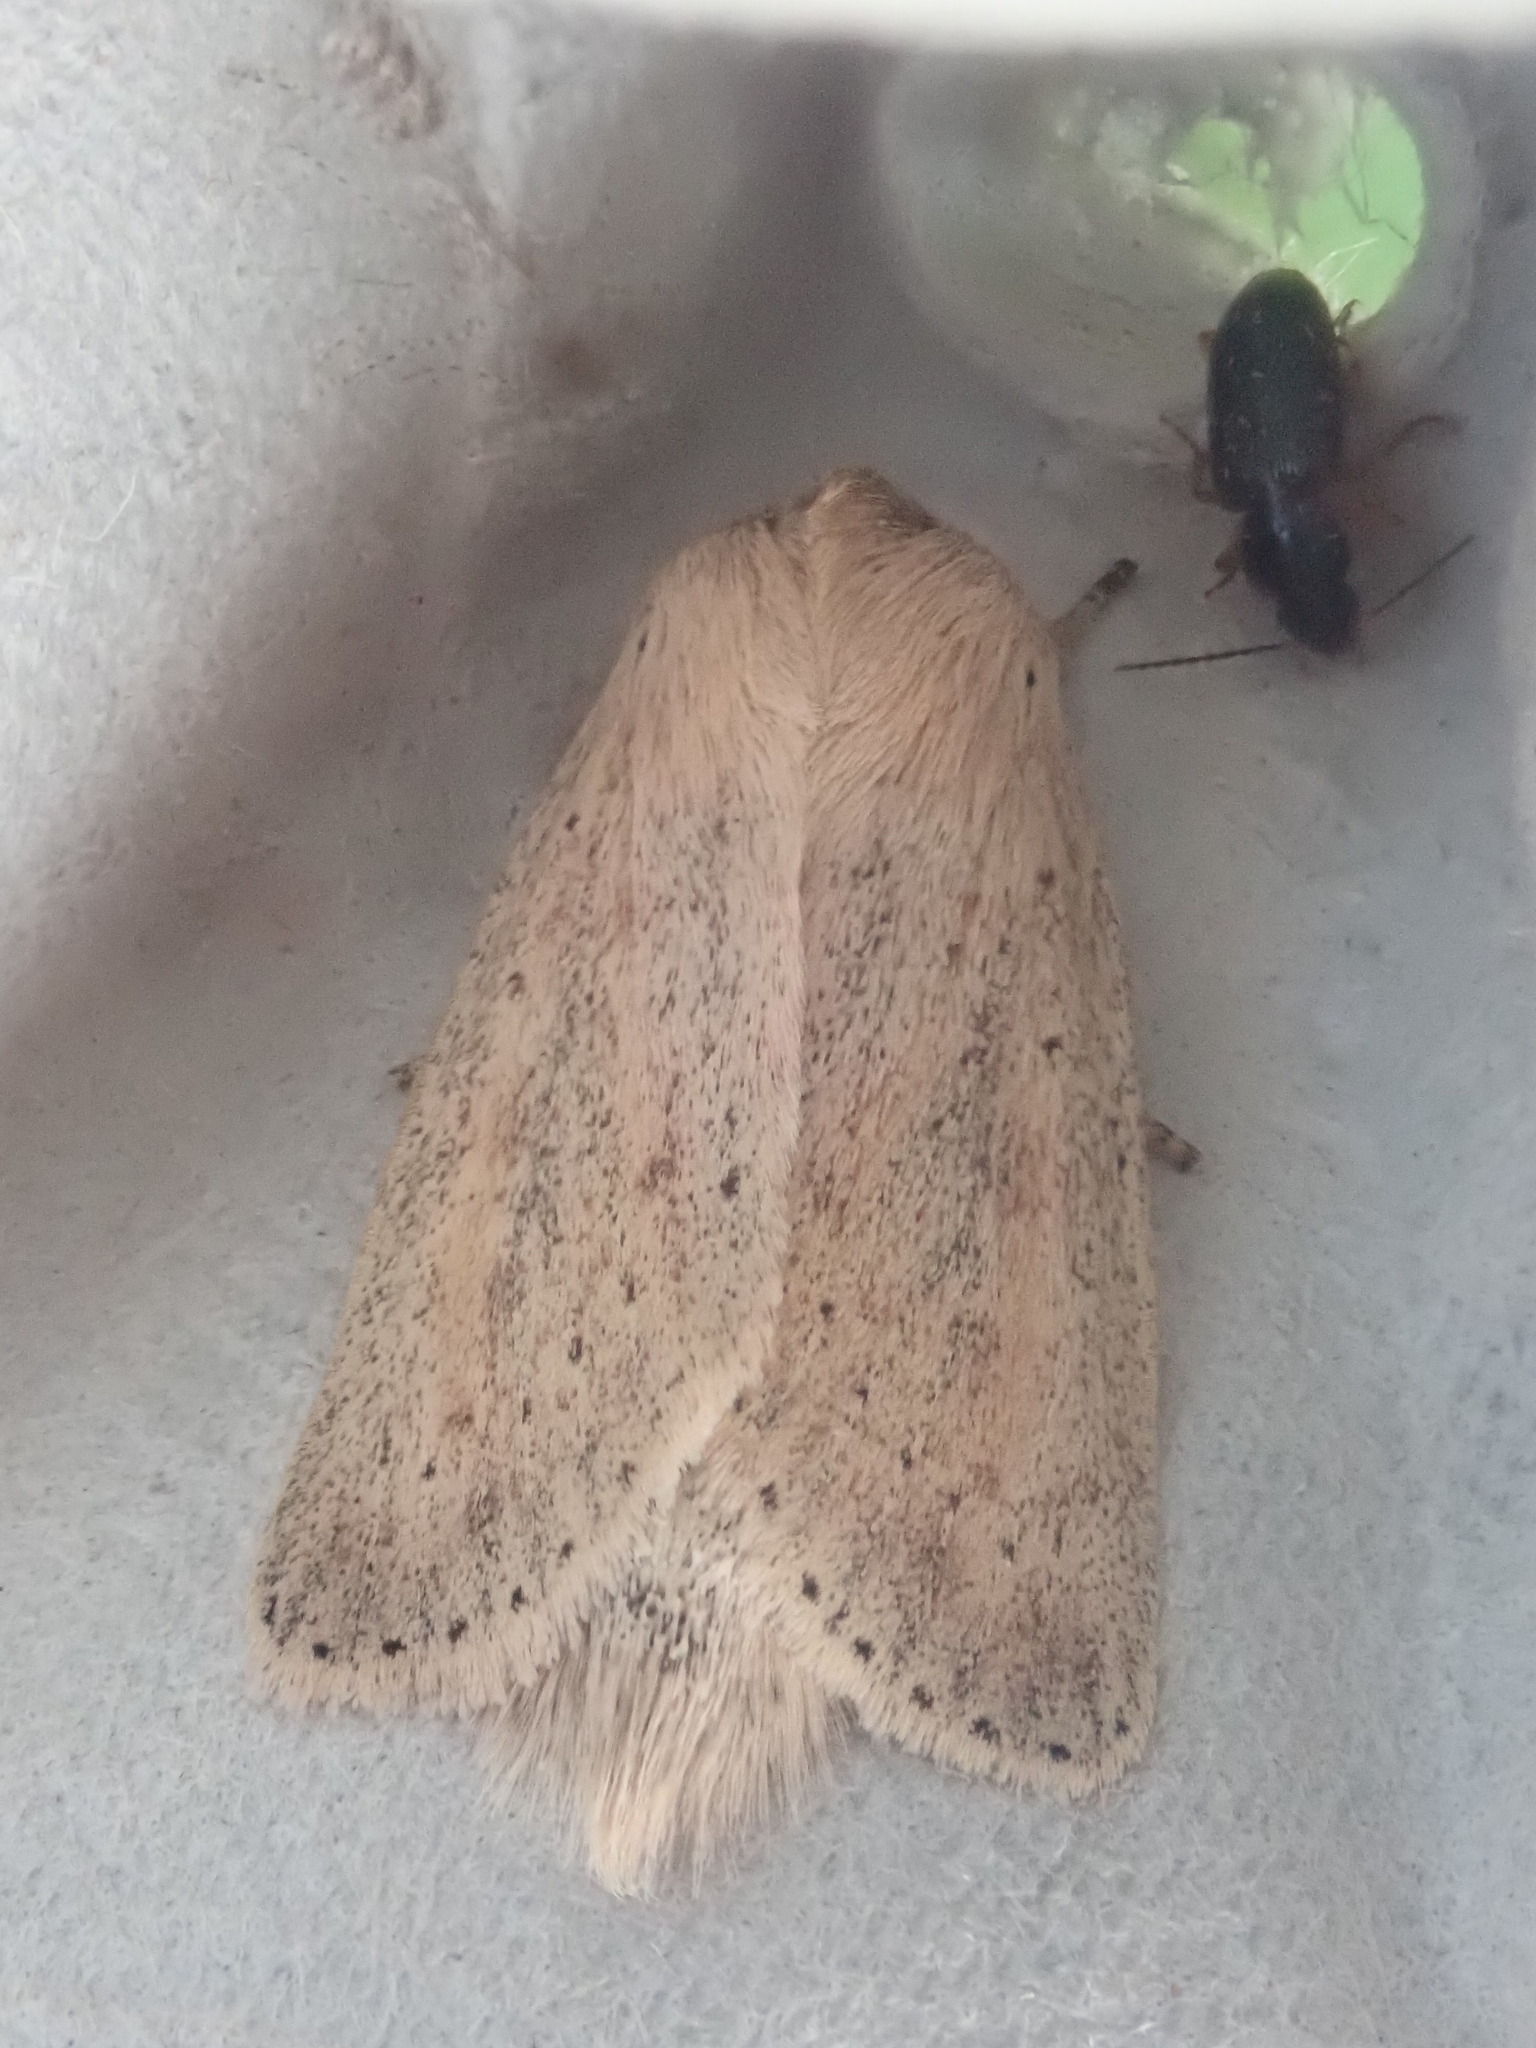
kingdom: Animalia
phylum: Arthropoda
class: Insecta
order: Lepidoptera
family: Noctuidae
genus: Globia
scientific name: Globia oblonga
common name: Oblong sedge borer moth
